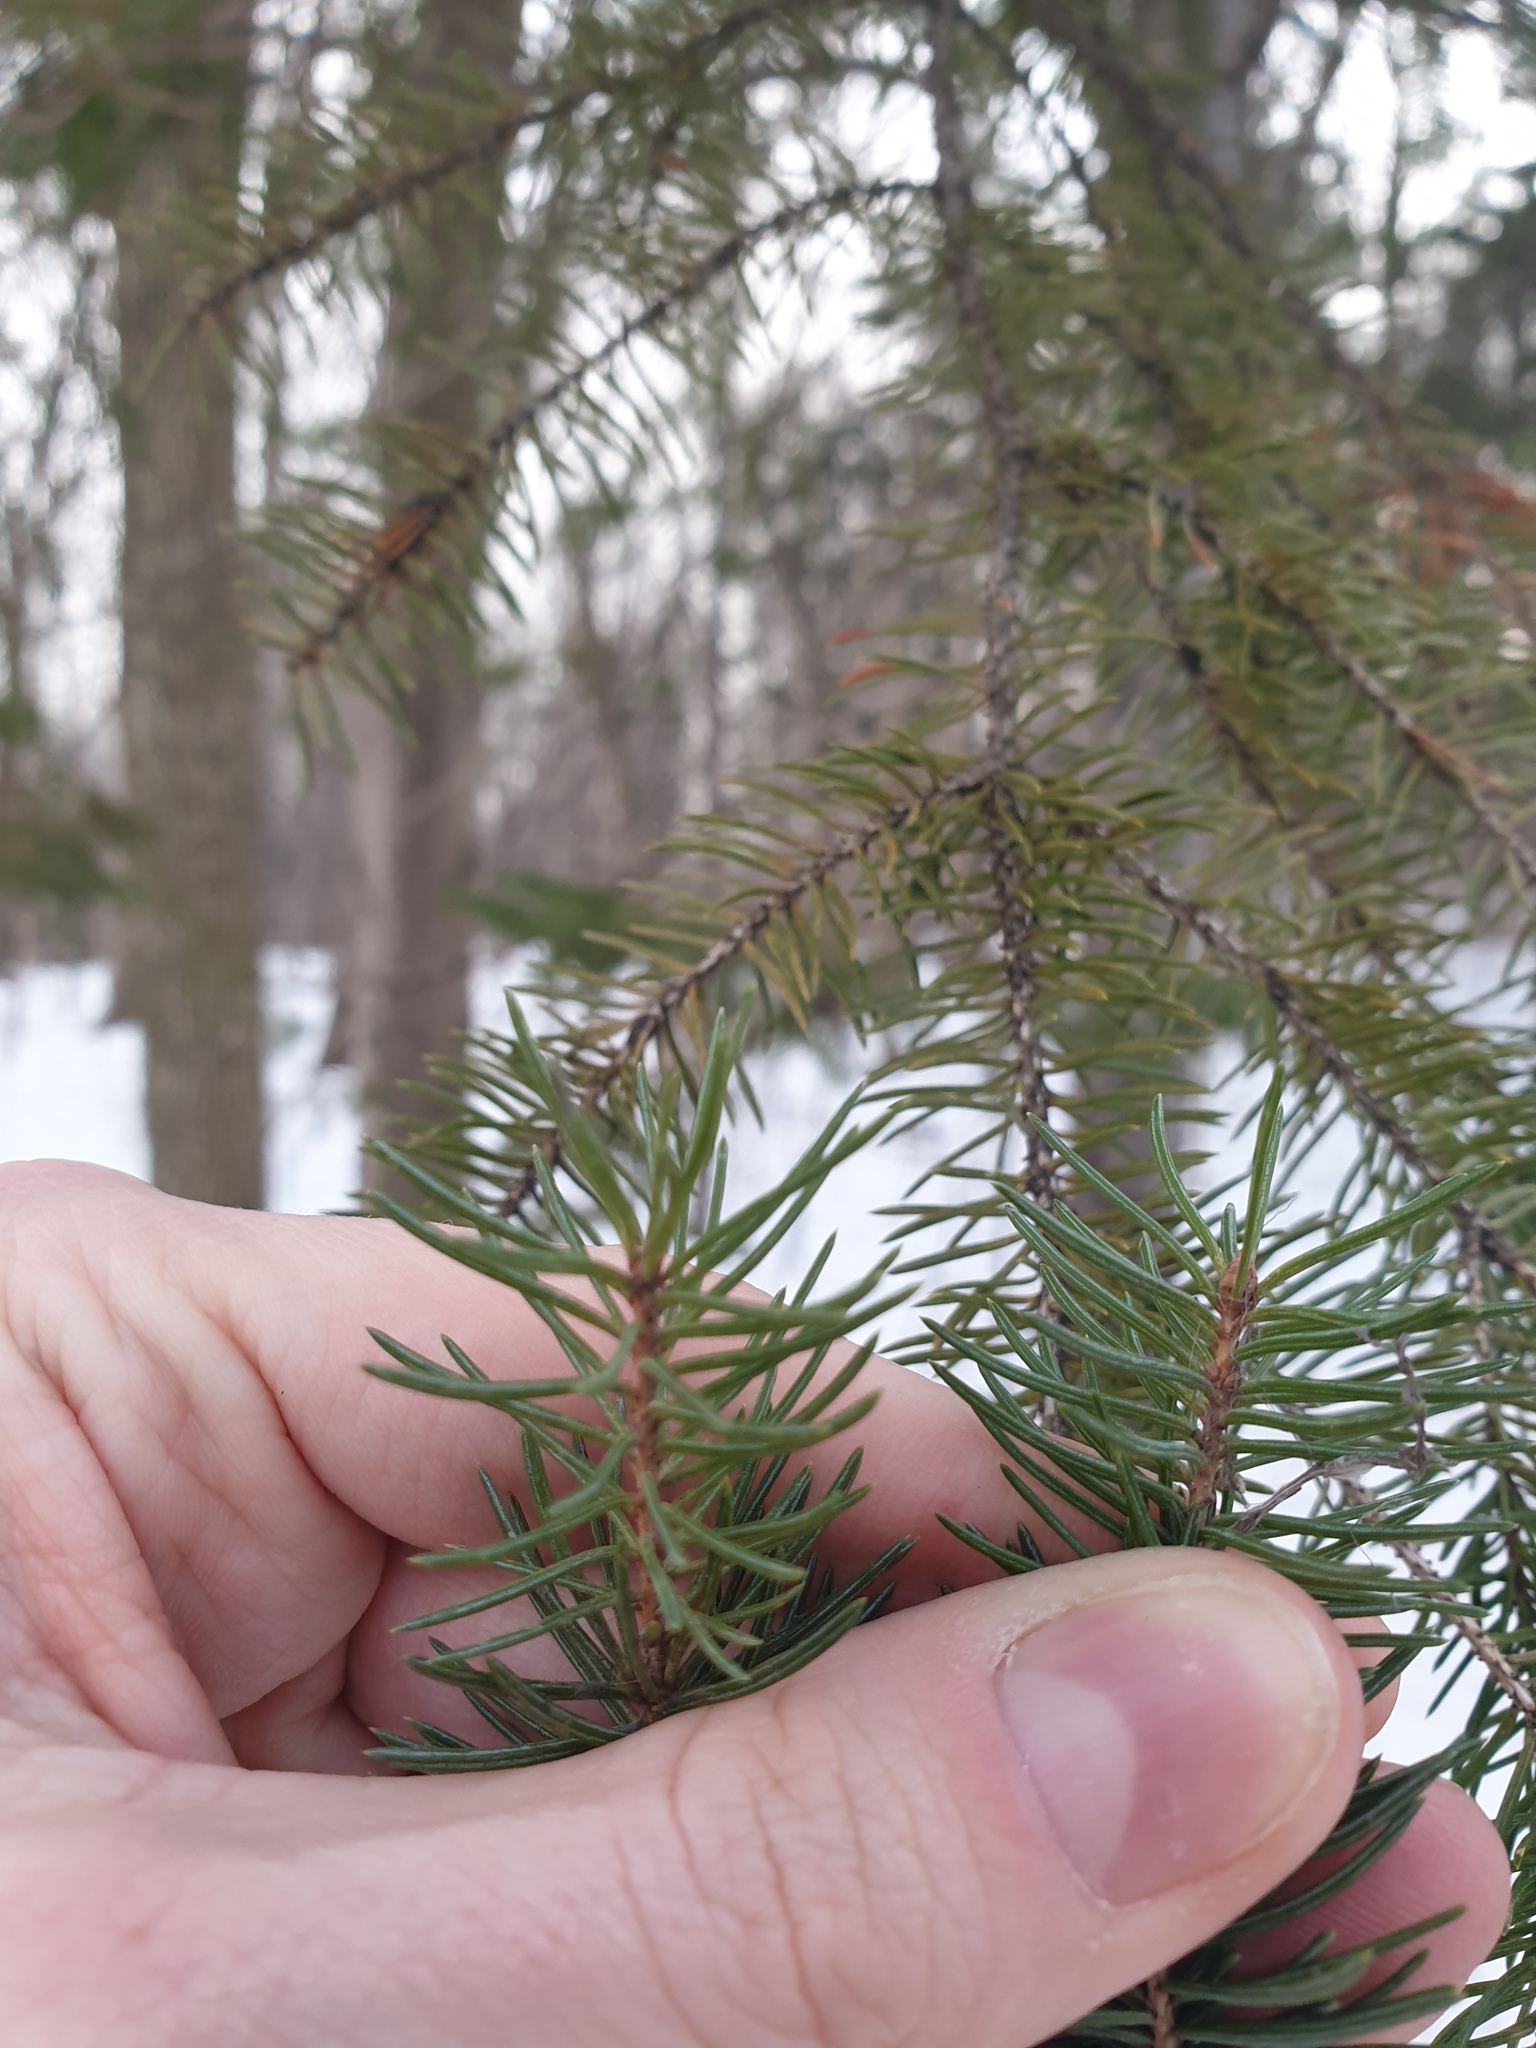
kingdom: Plantae
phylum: Tracheophyta
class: Pinopsida
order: Pinales
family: Pinaceae
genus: Picea
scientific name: Picea glauca
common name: White spruce
